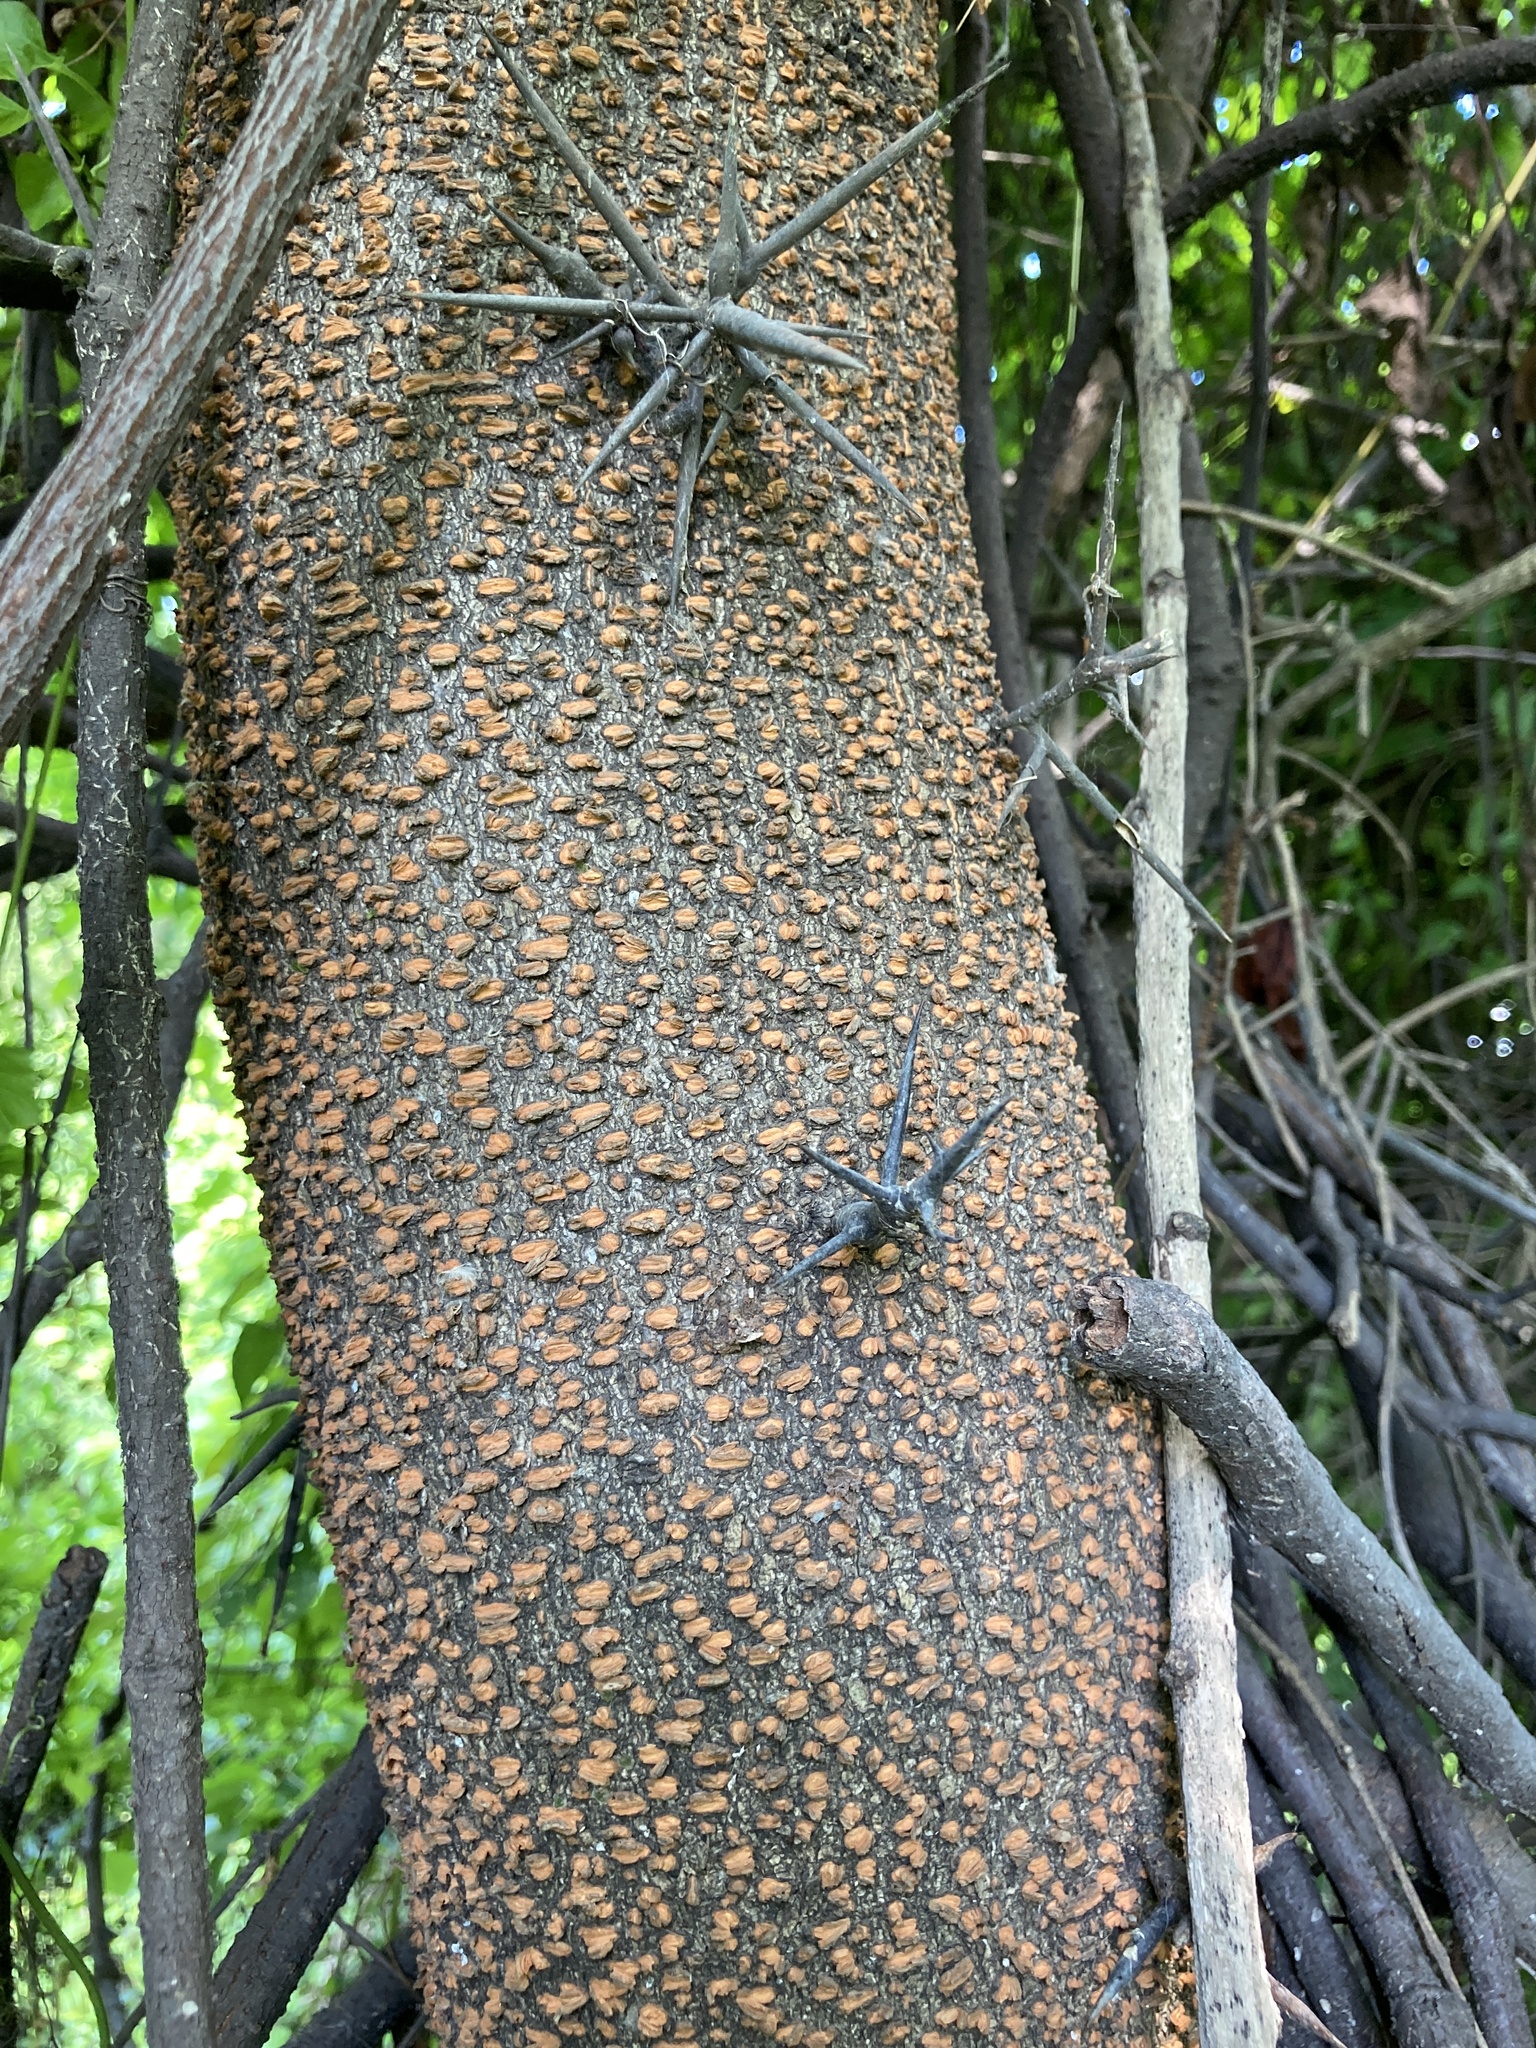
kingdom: Plantae
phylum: Tracheophyta
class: Magnoliopsida
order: Fabales
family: Fabaceae
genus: Gleditsia
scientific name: Gleditsia aquatica
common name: Swamp-locust
